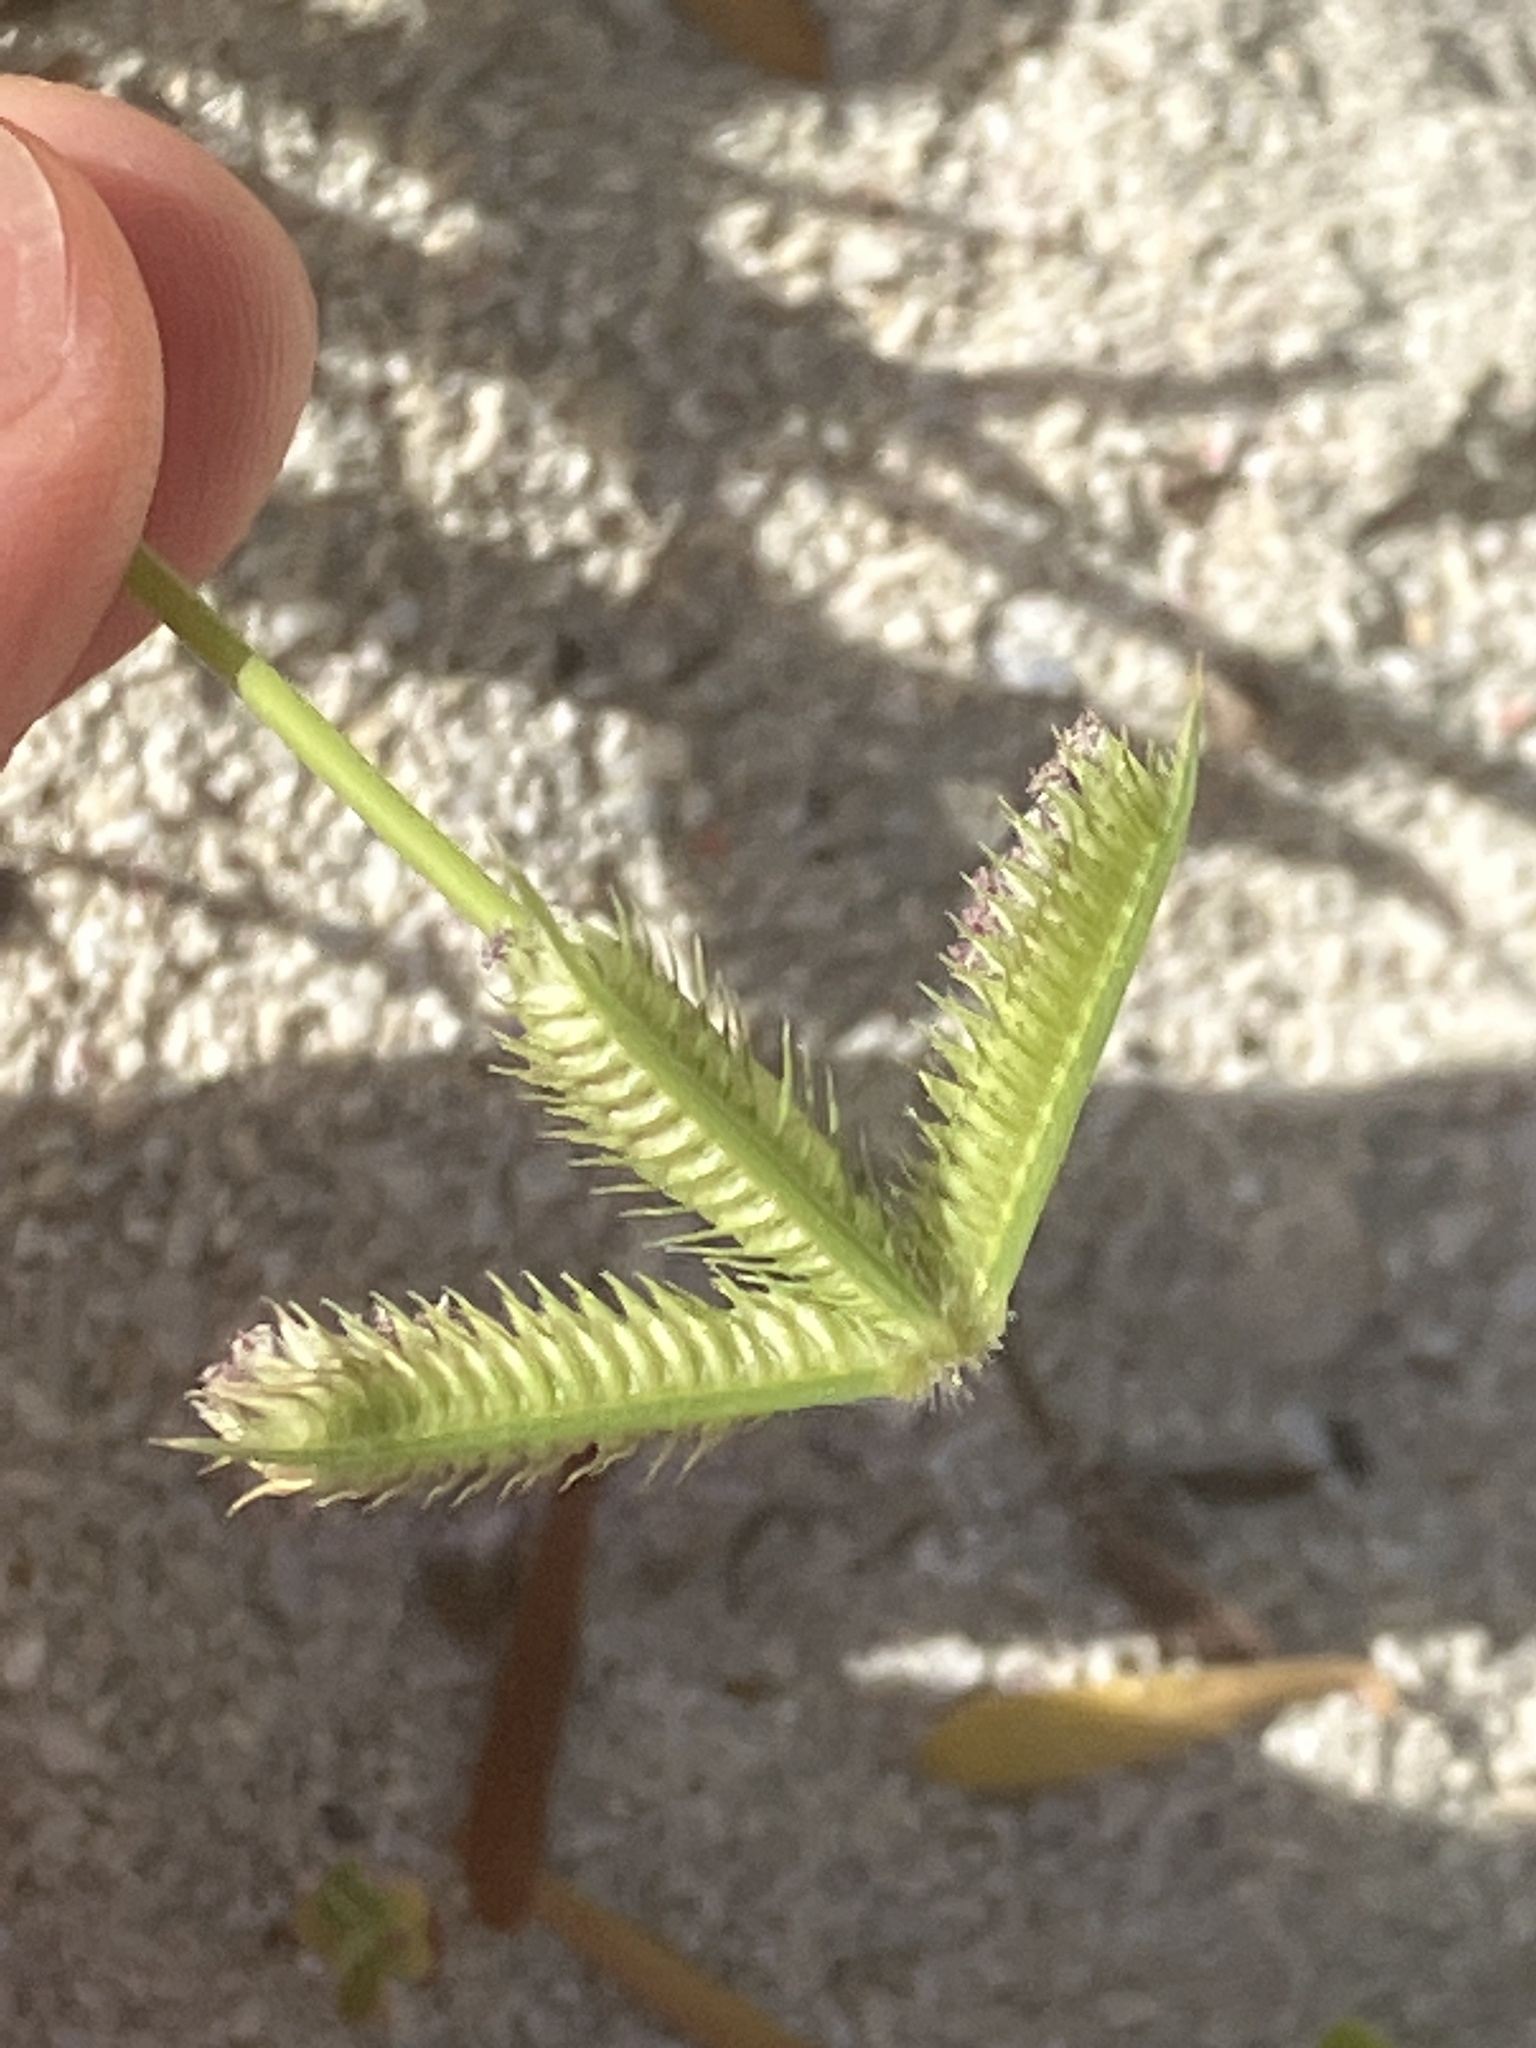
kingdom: Plantae
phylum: Tracheophyta
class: Liliopsida
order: Poales
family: Poaceae
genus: Dactyloctenium
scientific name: Dactyloctenium aegyptium
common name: Egyptian grass
